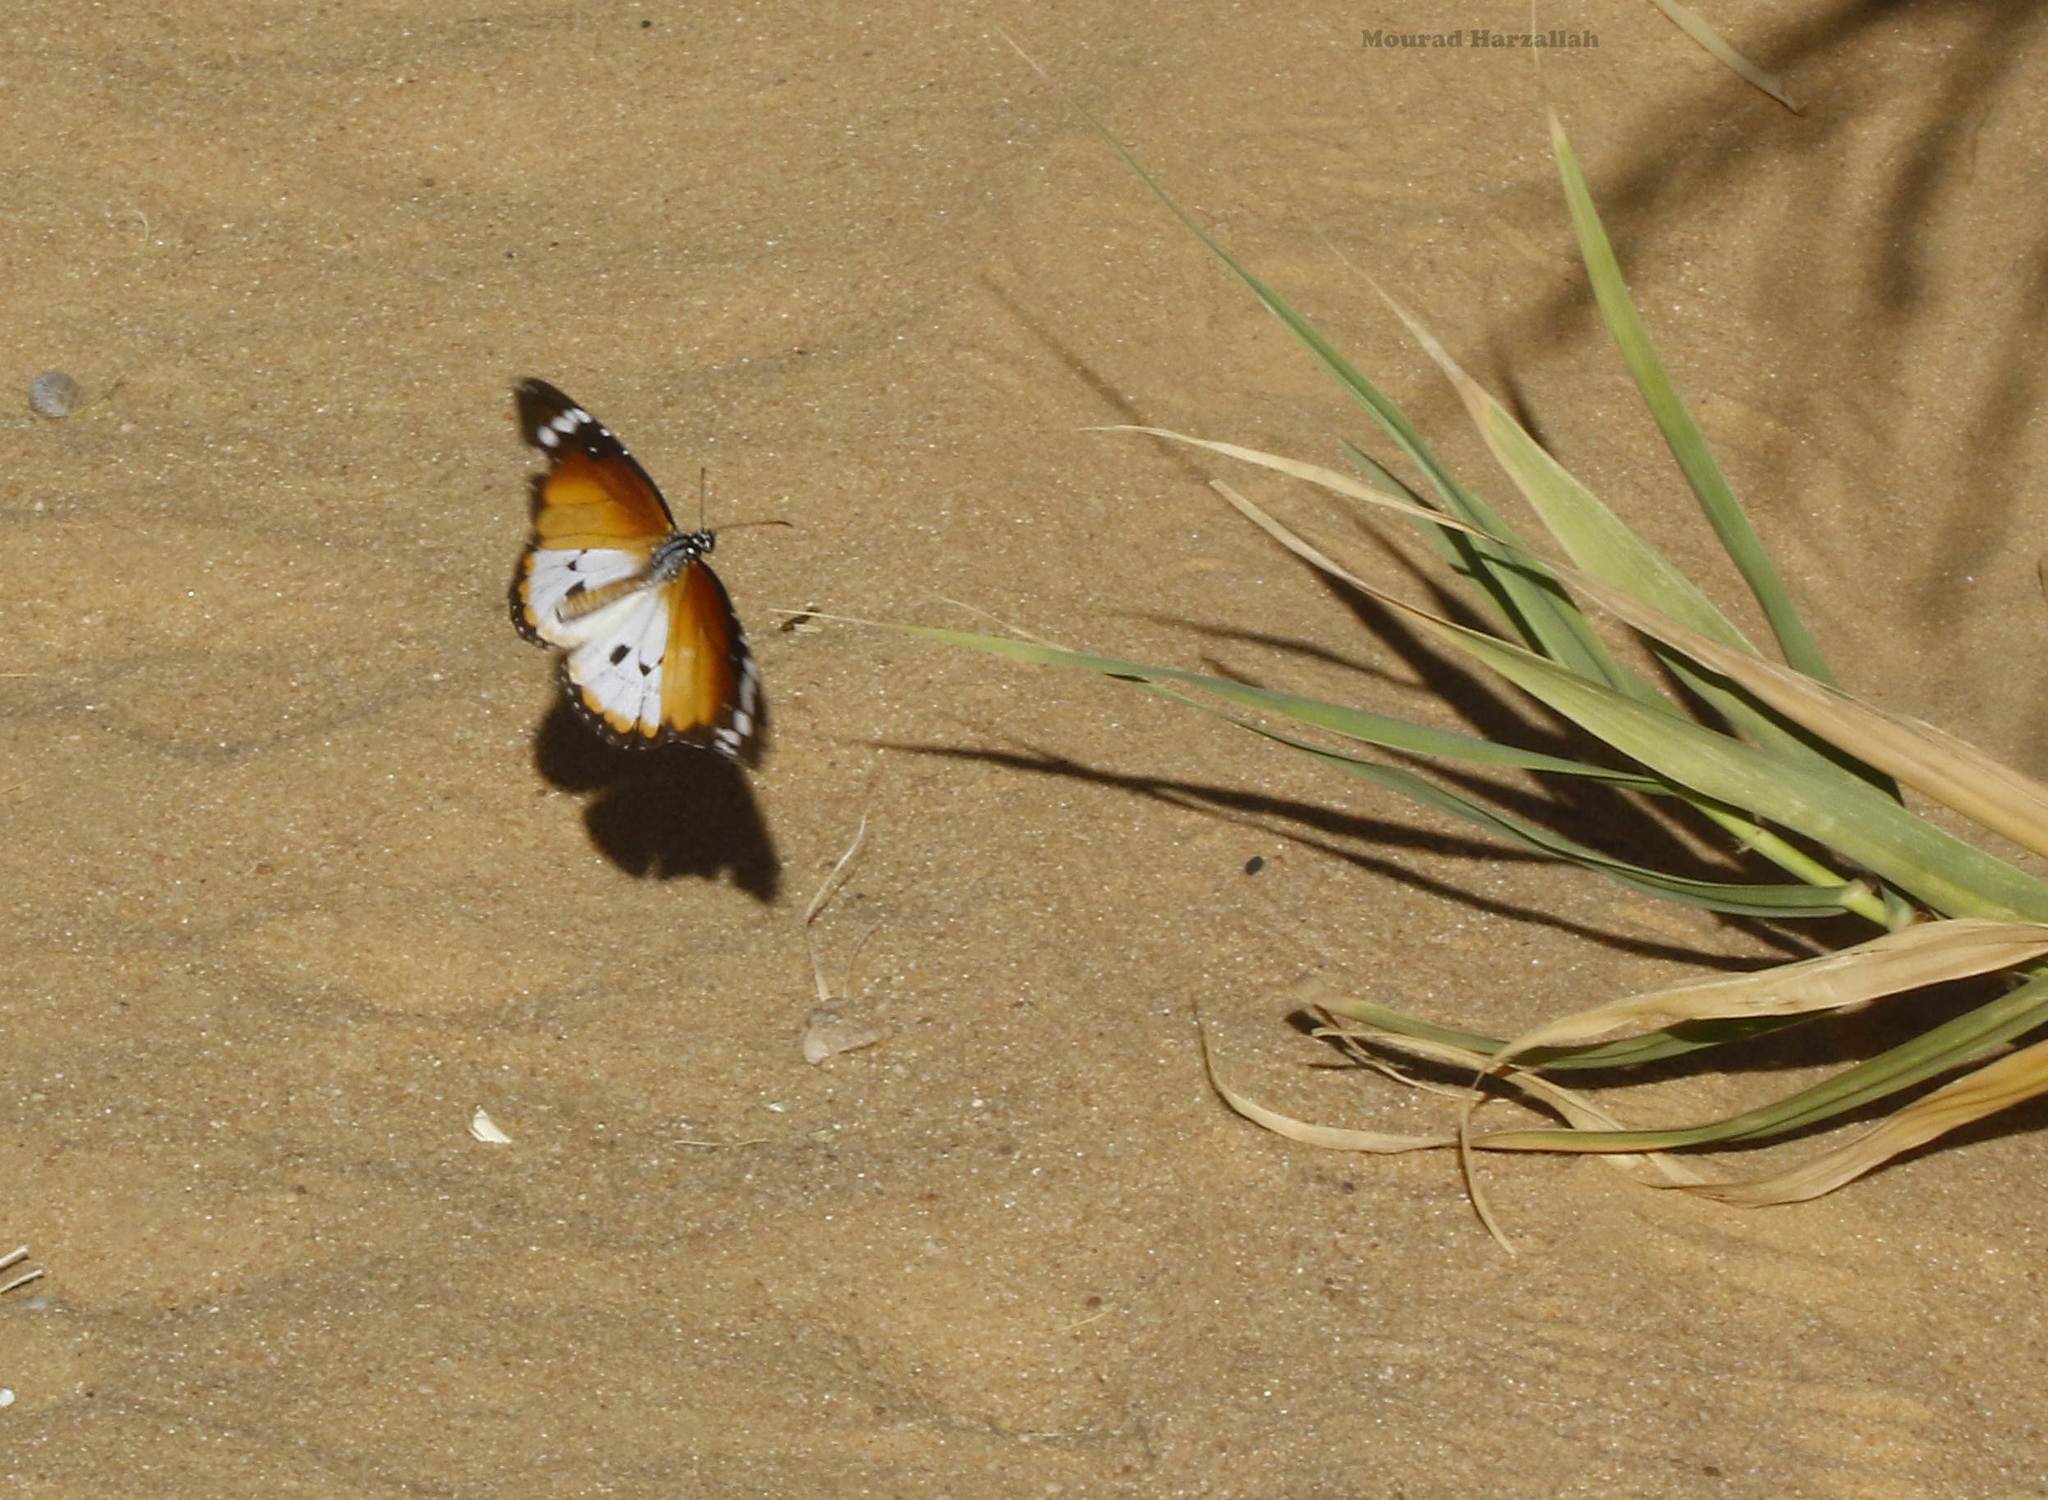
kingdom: Animalia
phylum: Arthropoda
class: Insecta
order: Lepidoptera
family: Nymphalidae
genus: Danaus
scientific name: Danaus chrysippus
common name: Plain tiger
